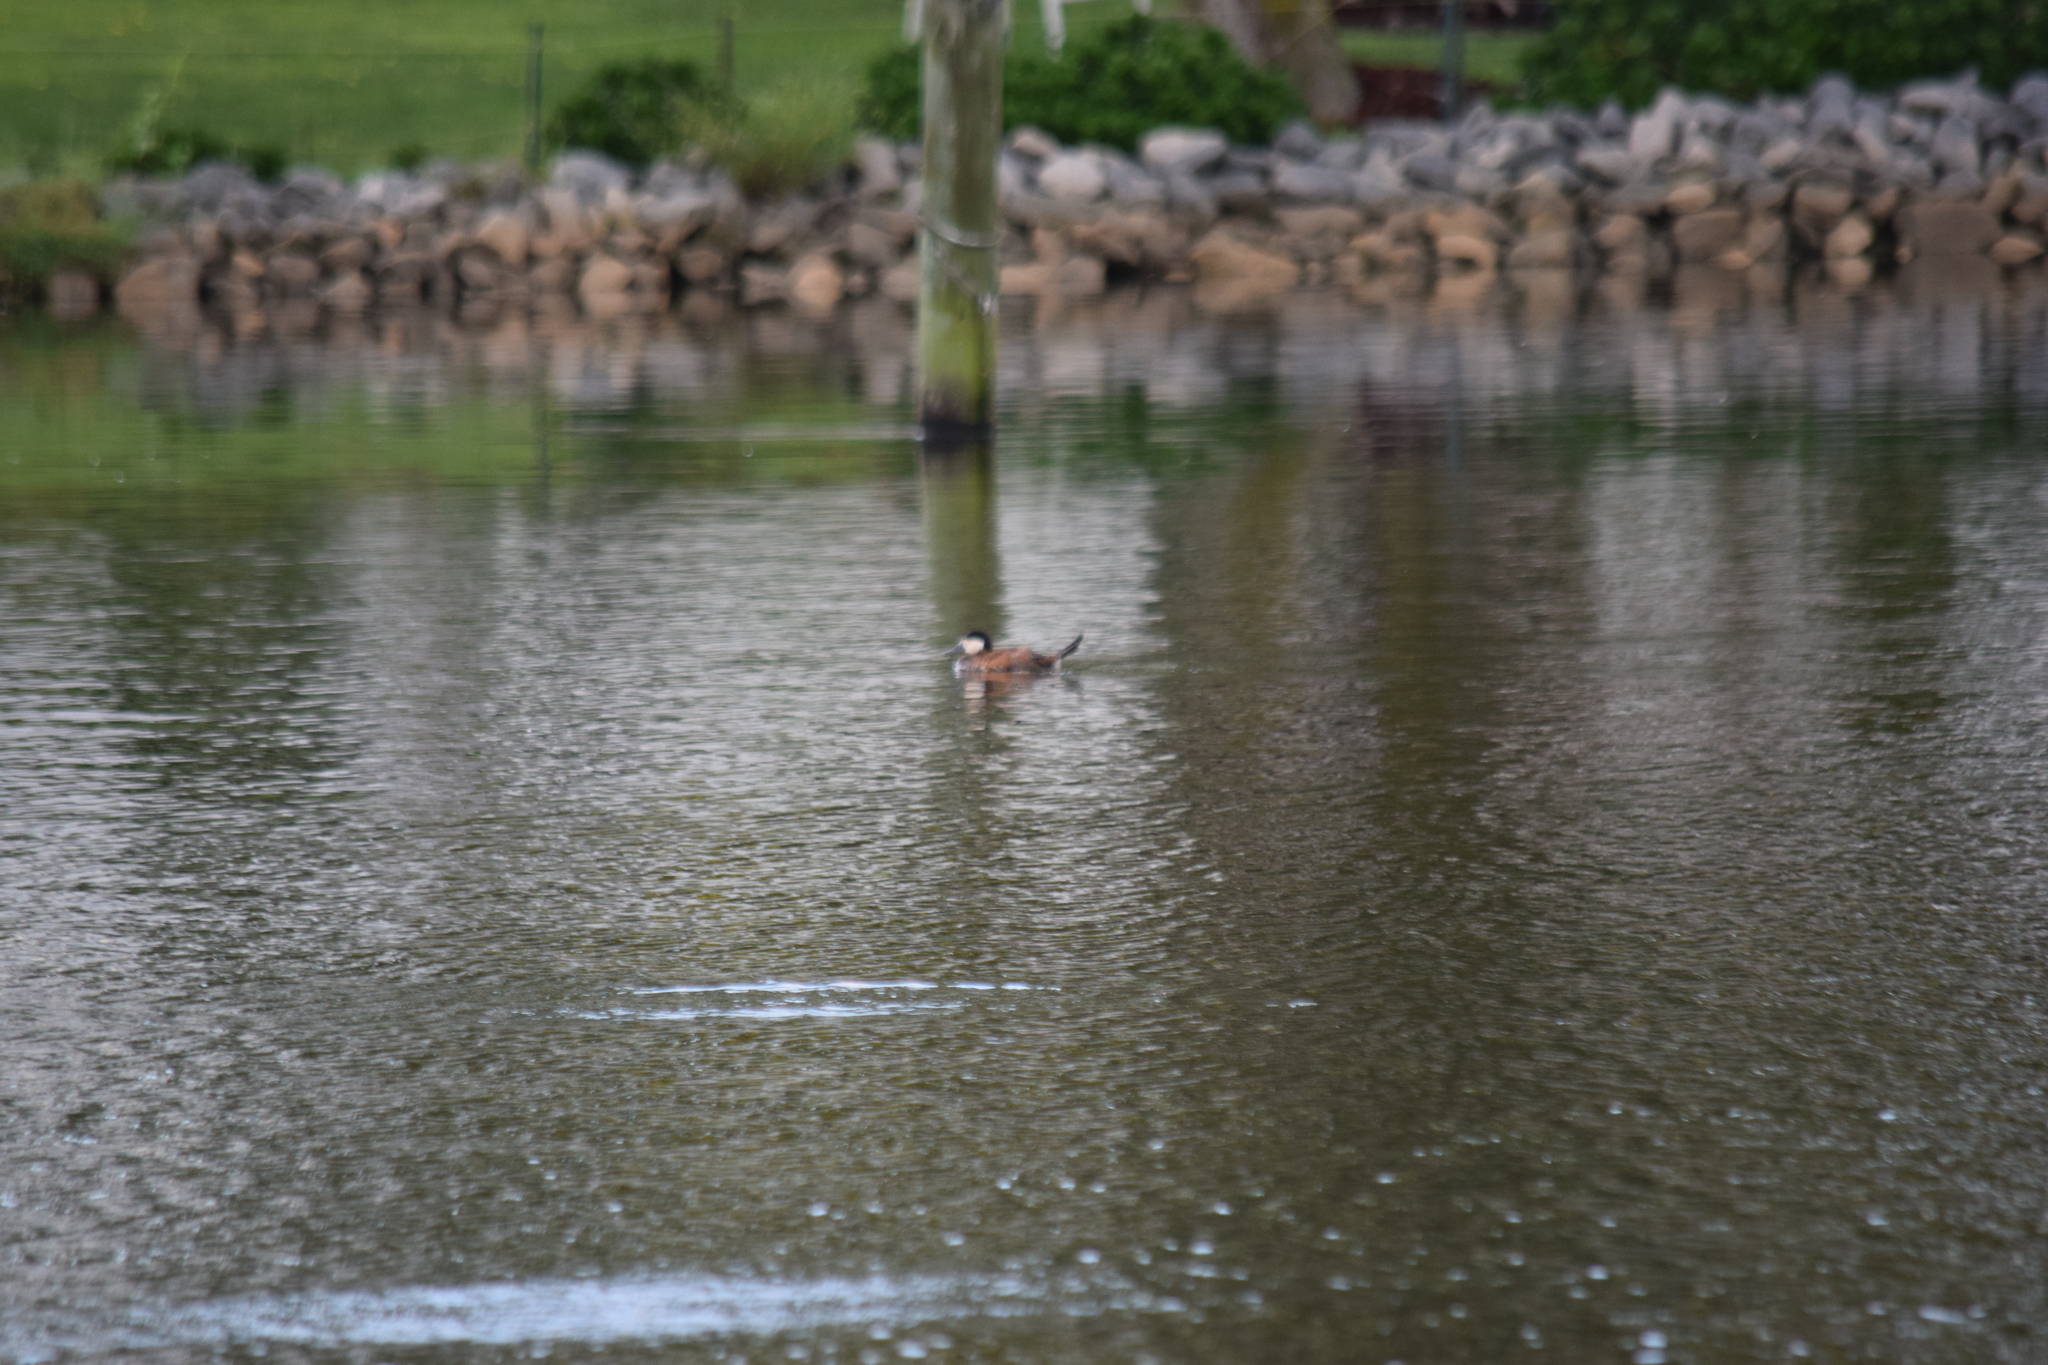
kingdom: Animalia
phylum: Chordata
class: Aves
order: Anseriformes
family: Anatidae
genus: Oxyura
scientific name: Oxyura jamaicensis
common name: Ruddy duck
